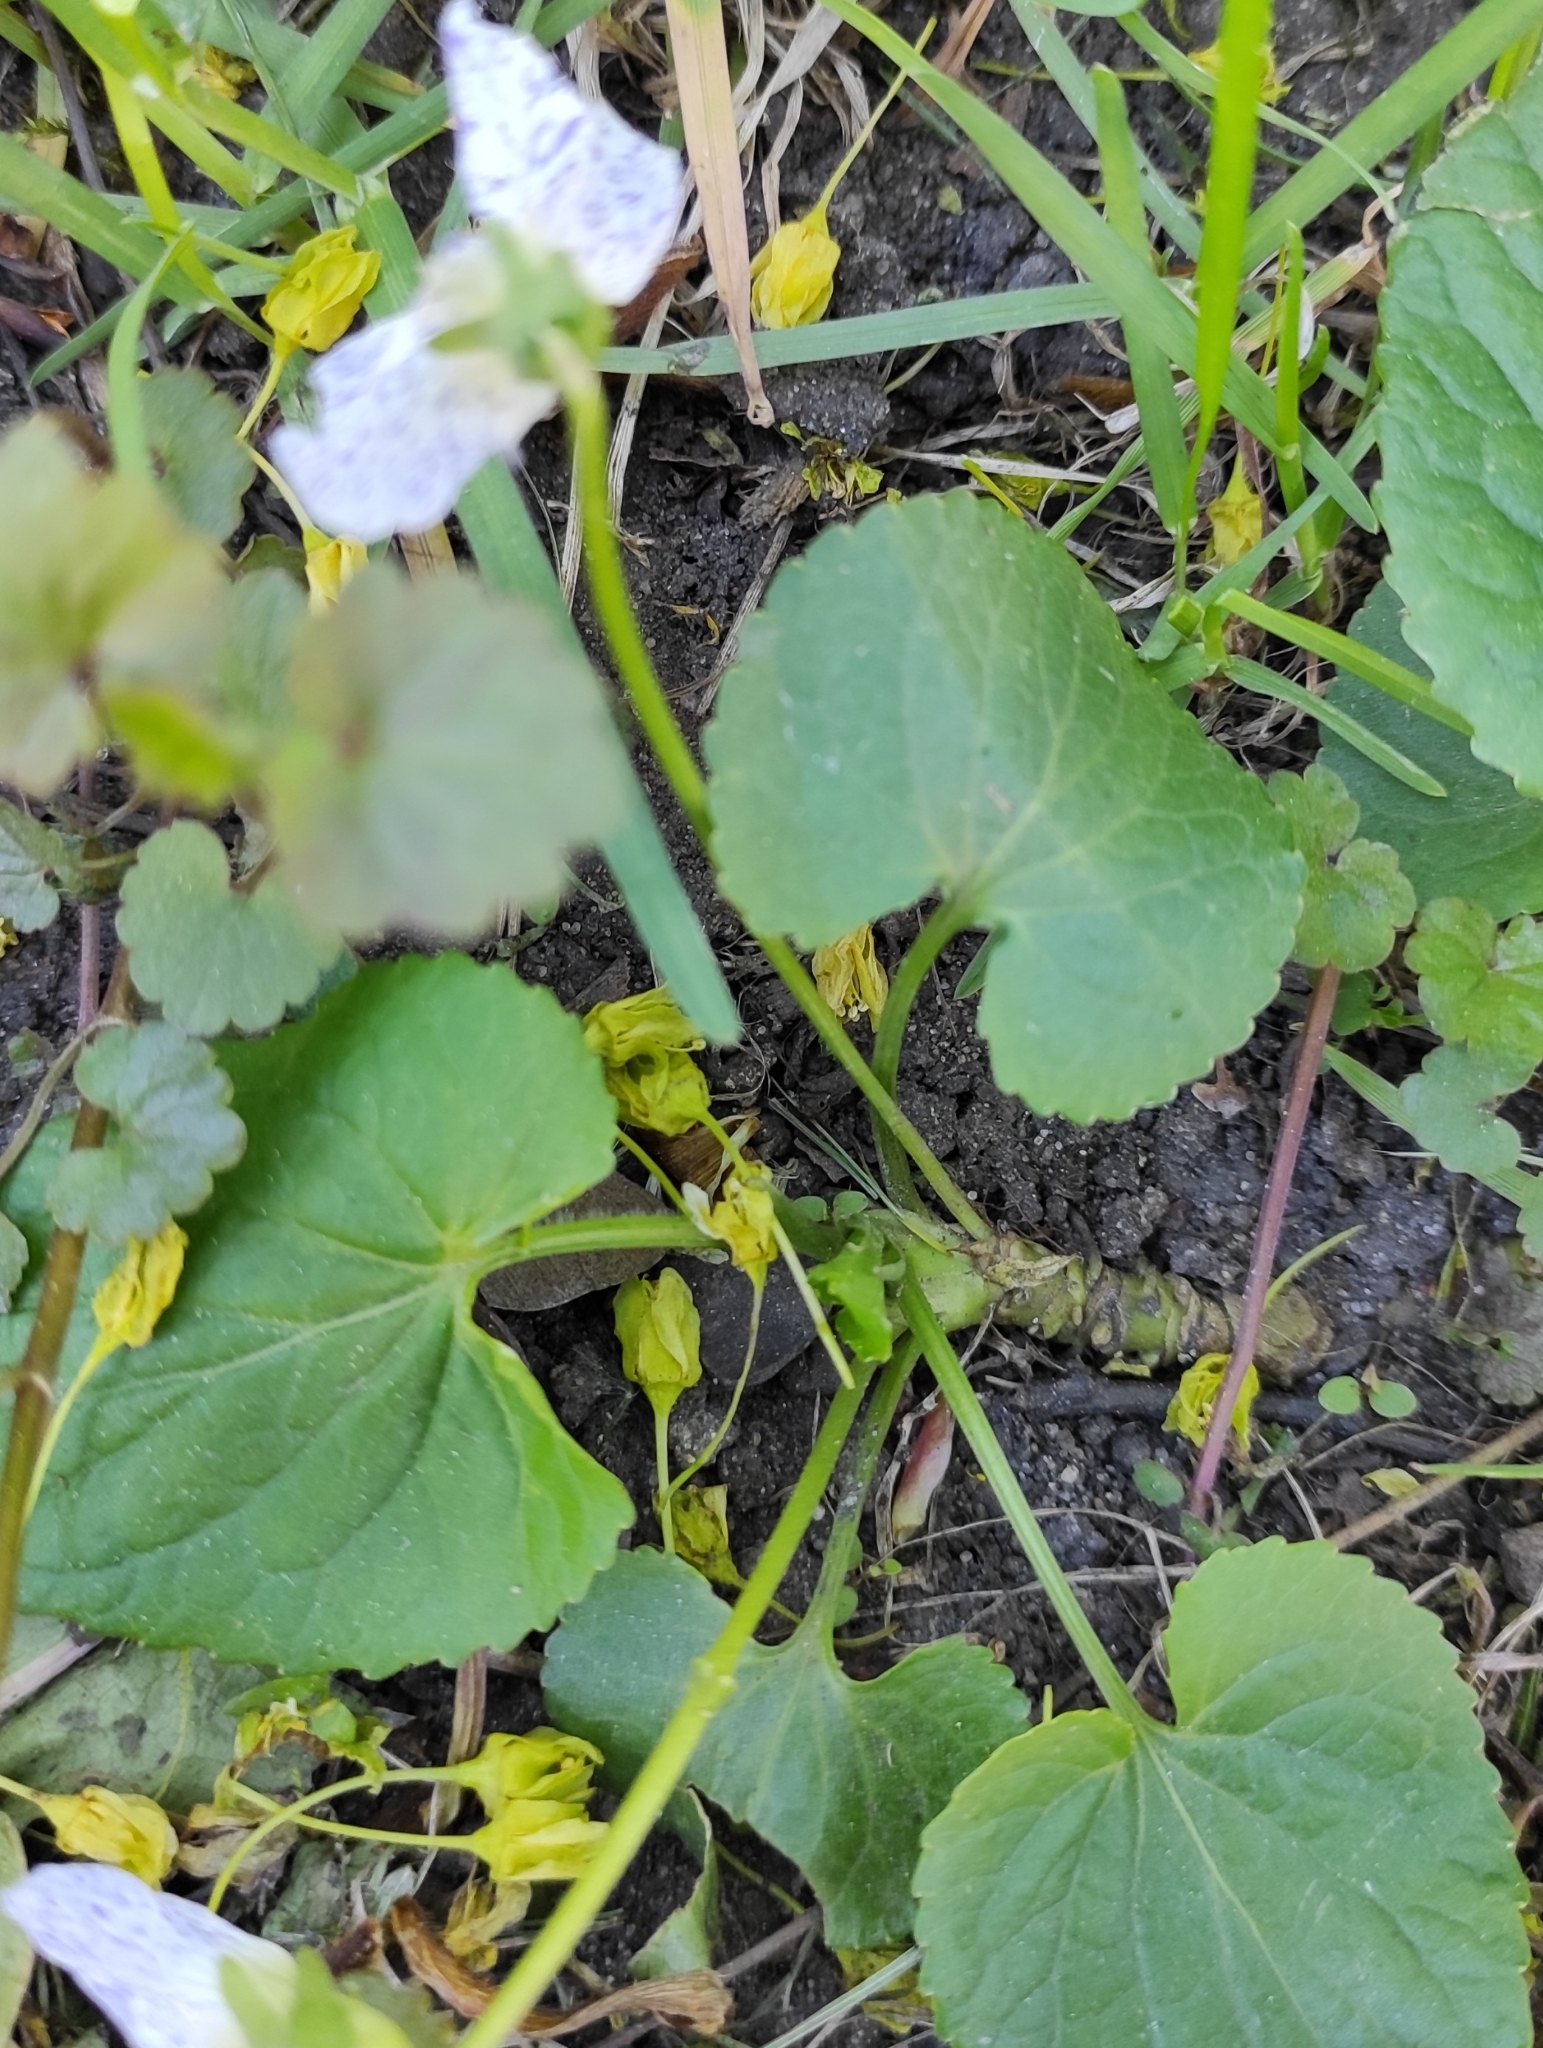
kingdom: Plantae
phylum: Tracheophyta
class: Magnoliopsida
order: Malpighiales
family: Violaceae
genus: Viola
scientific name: Viola sororia
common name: Dooryard violet
